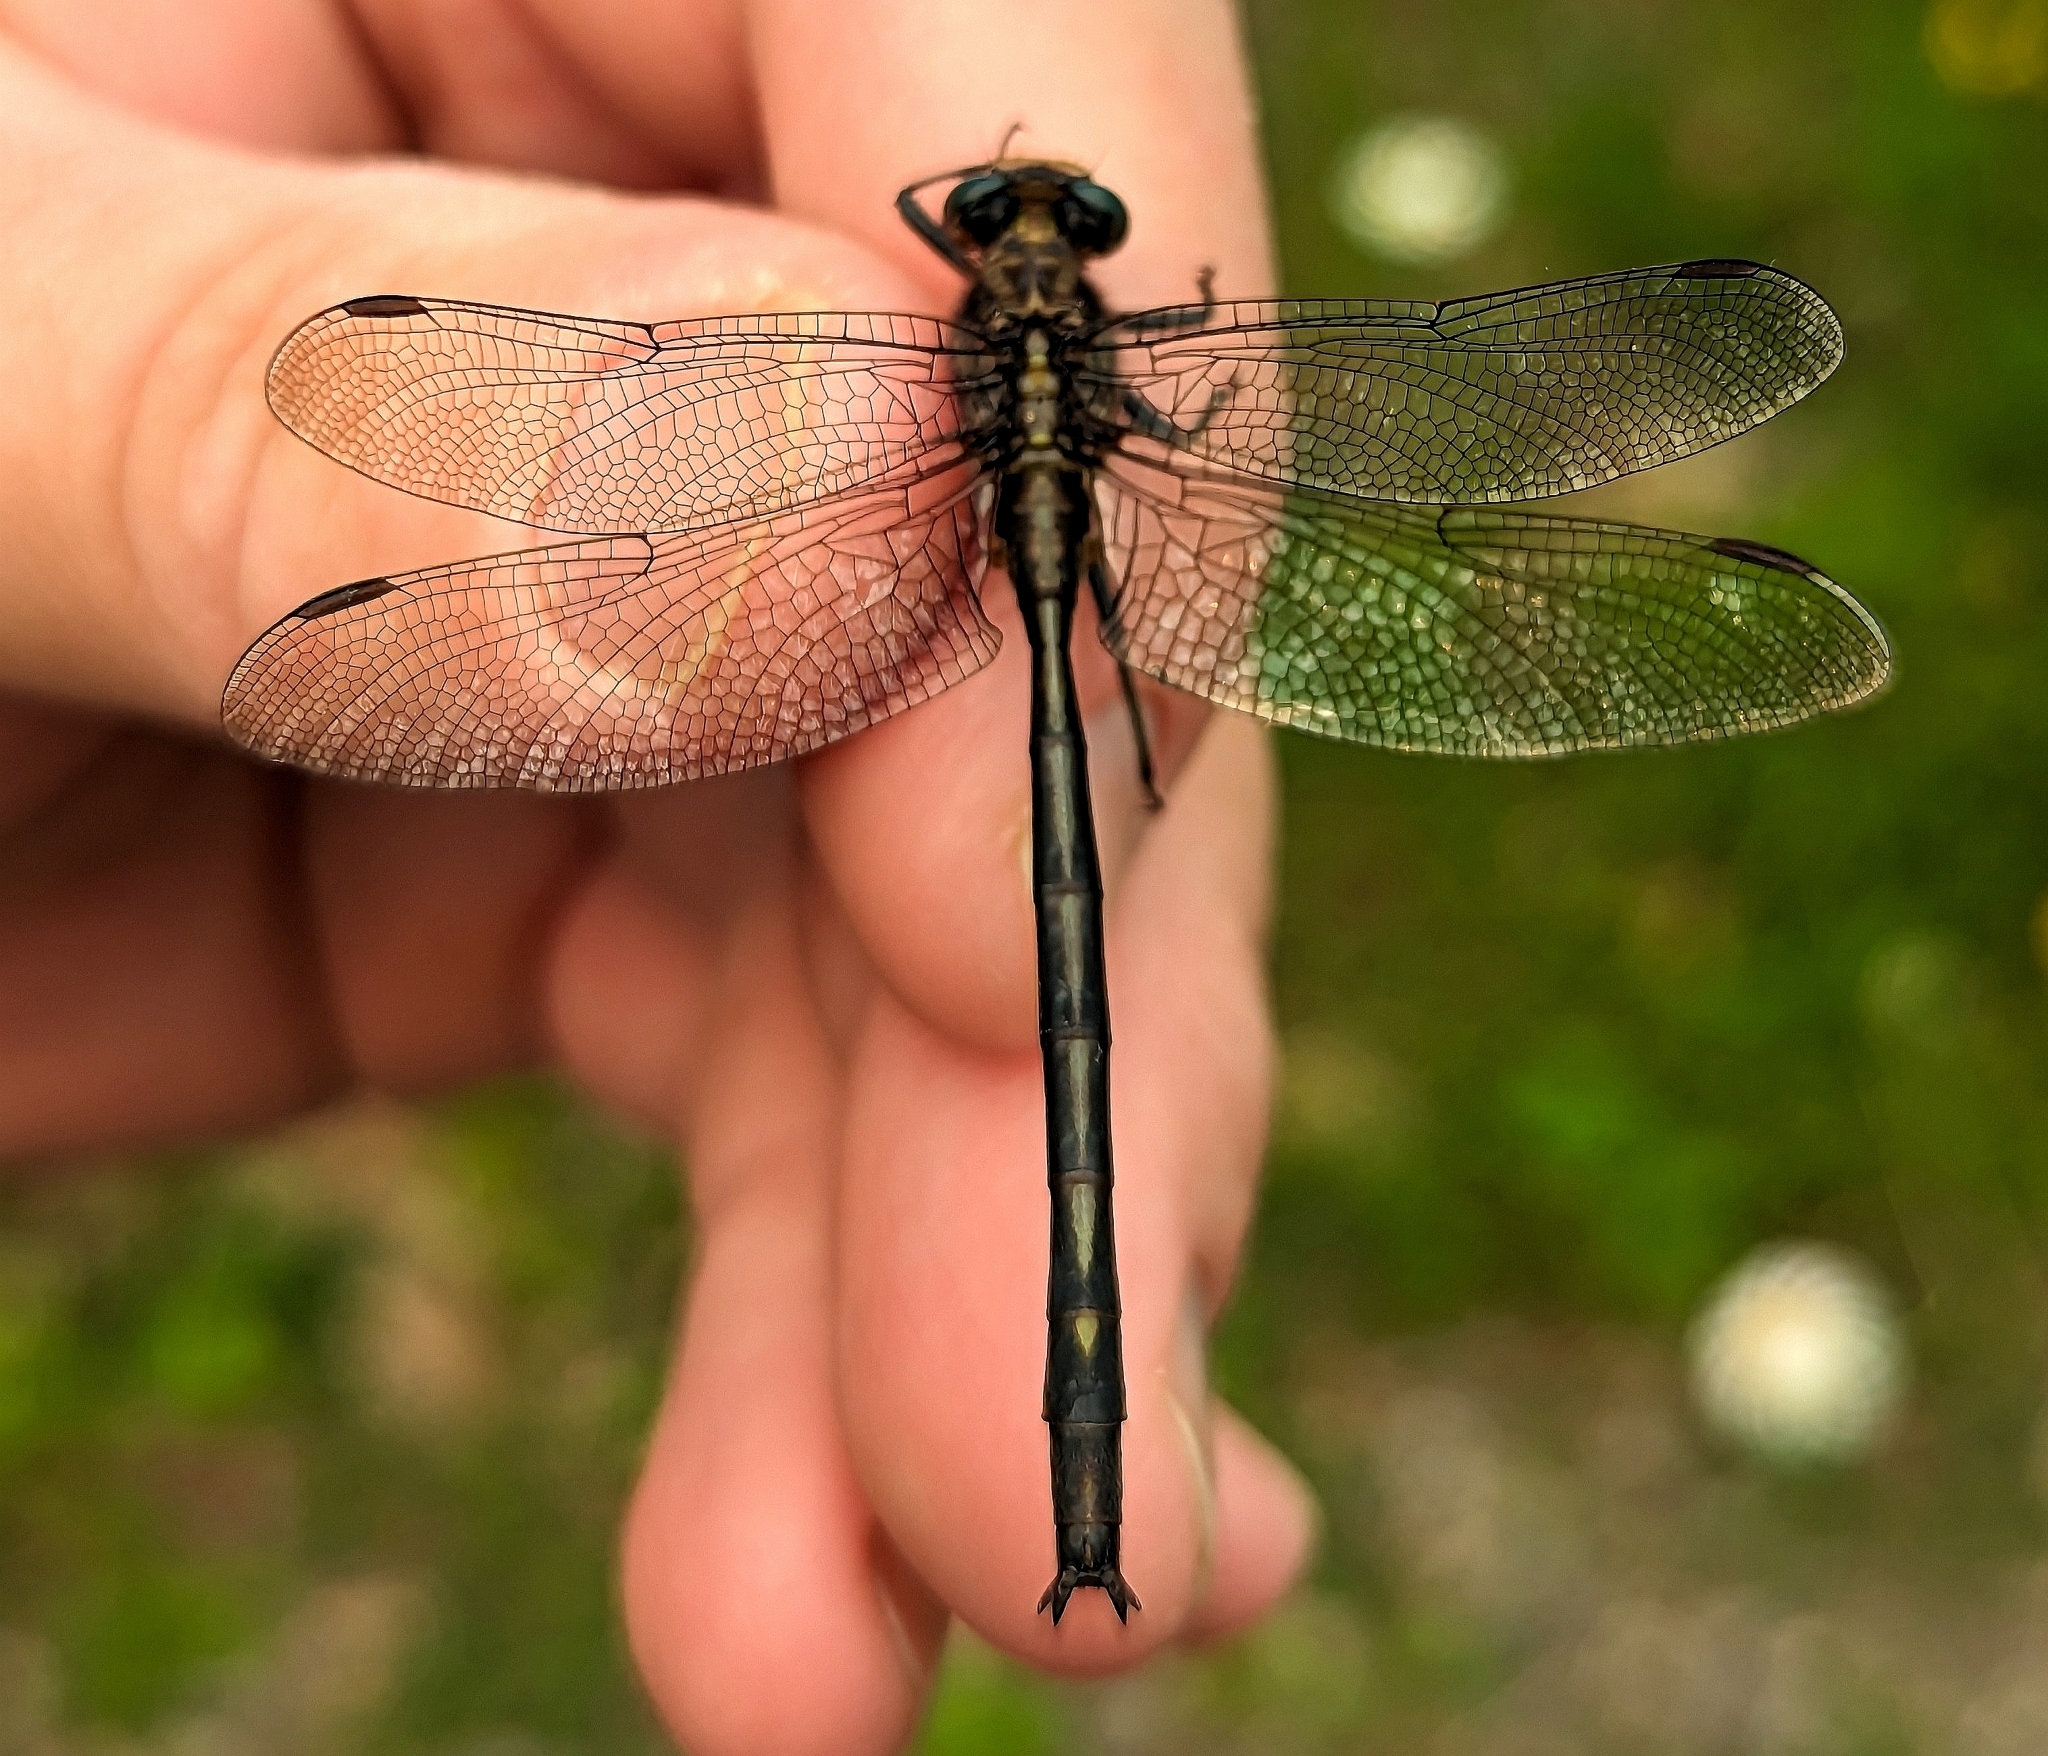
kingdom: Animalia
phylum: Arthropoda
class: Insecta
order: Odonata
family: Gomphidae
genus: Phanogomphus
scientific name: Phanogomphus spicatus
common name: Dusky clubtail
